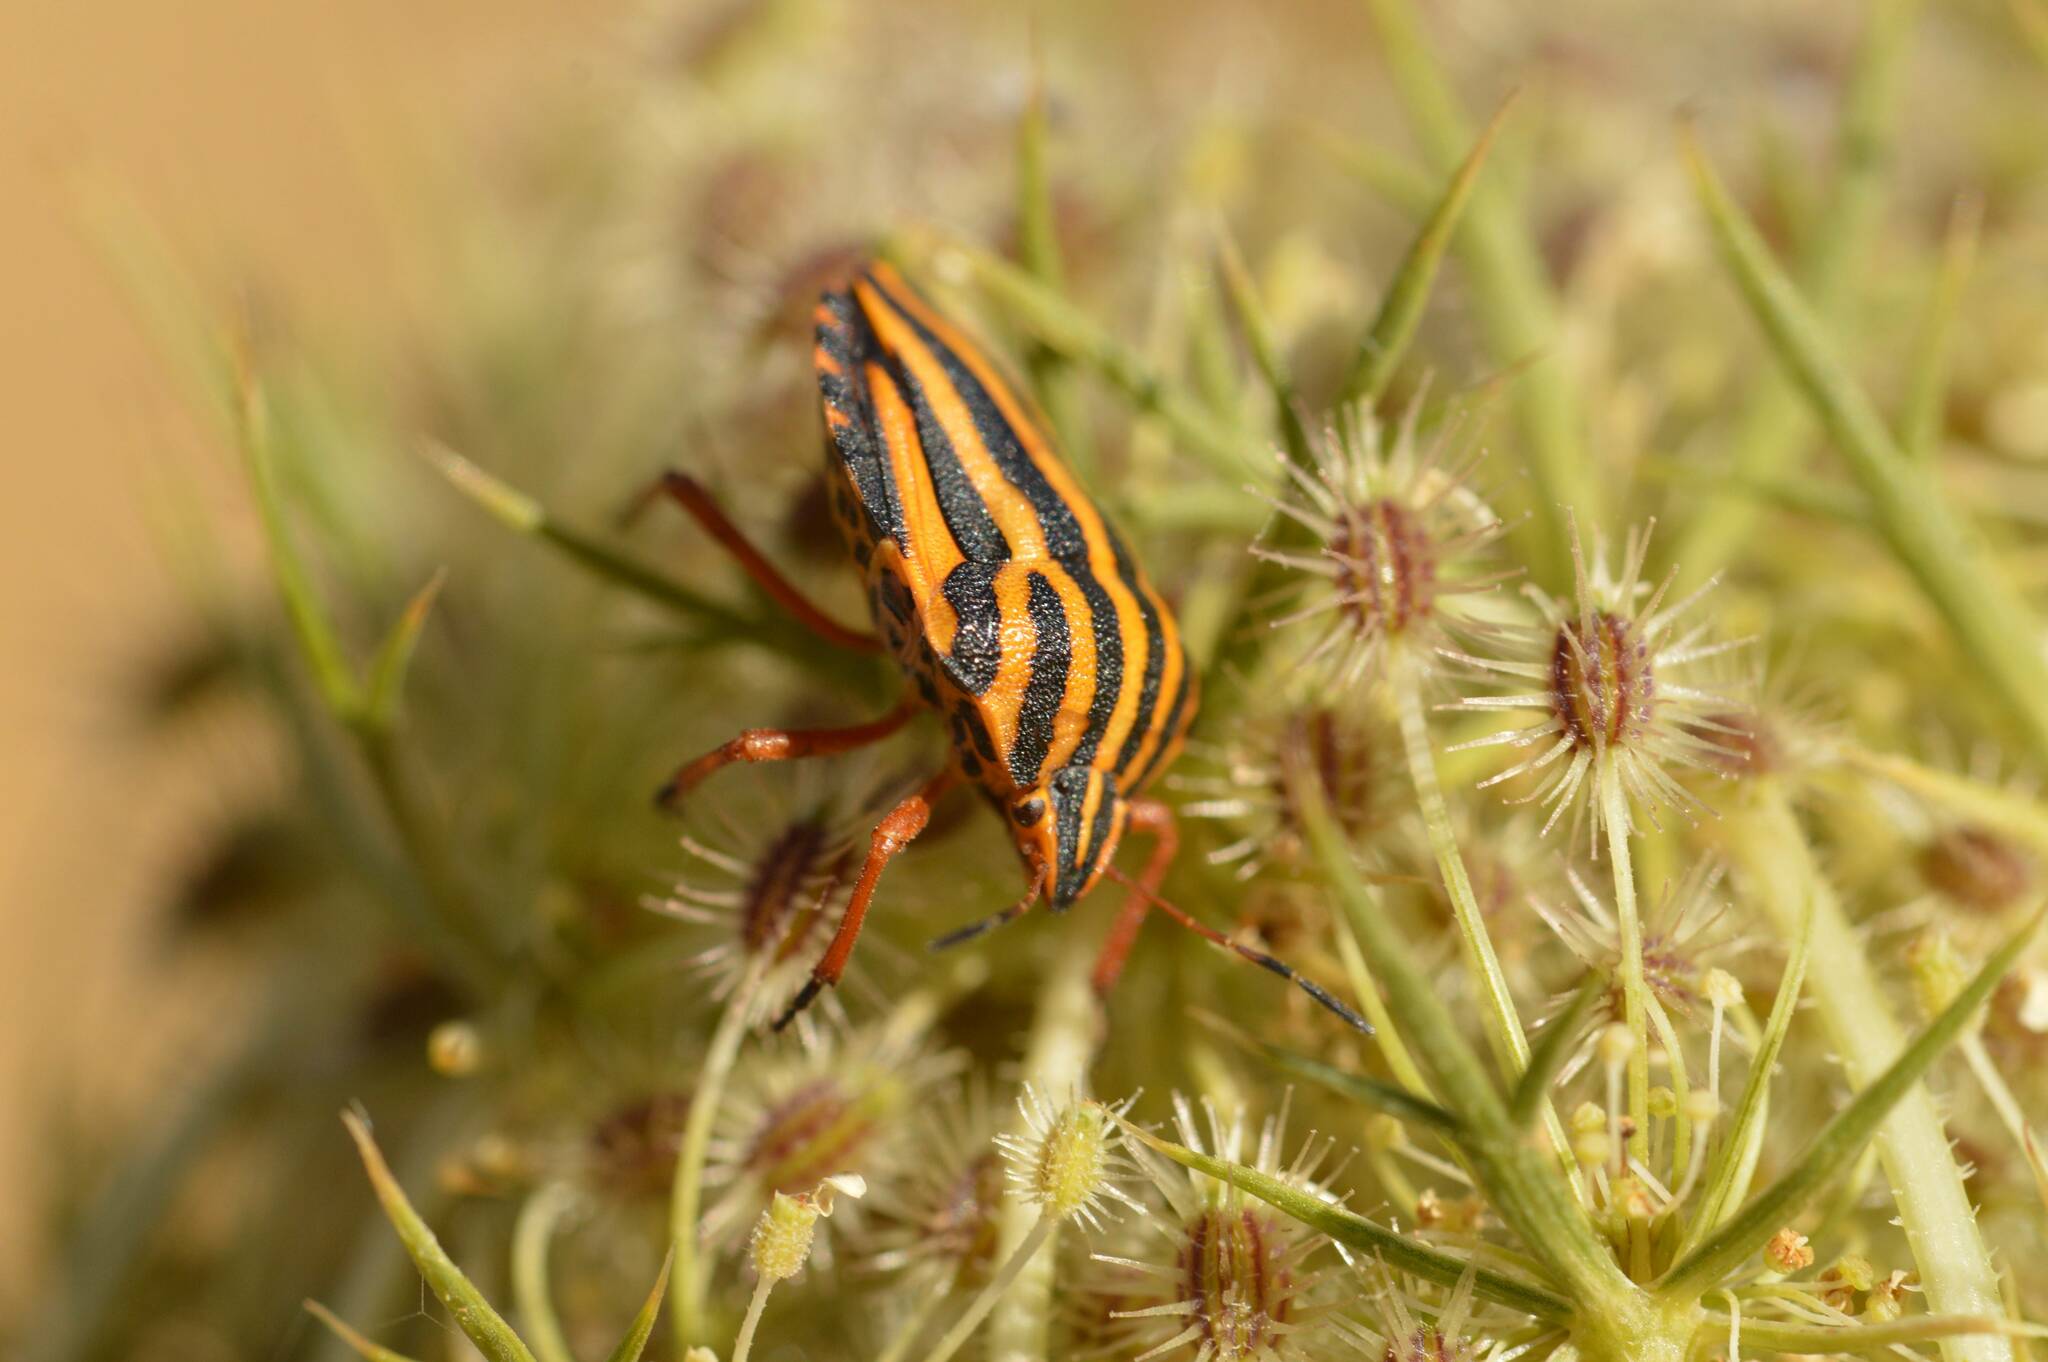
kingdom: Animalia
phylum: Arthropoda
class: Insecta
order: Hemiptera
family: Pentatomidae
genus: Graphosoma
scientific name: Graphosoma lineatum
